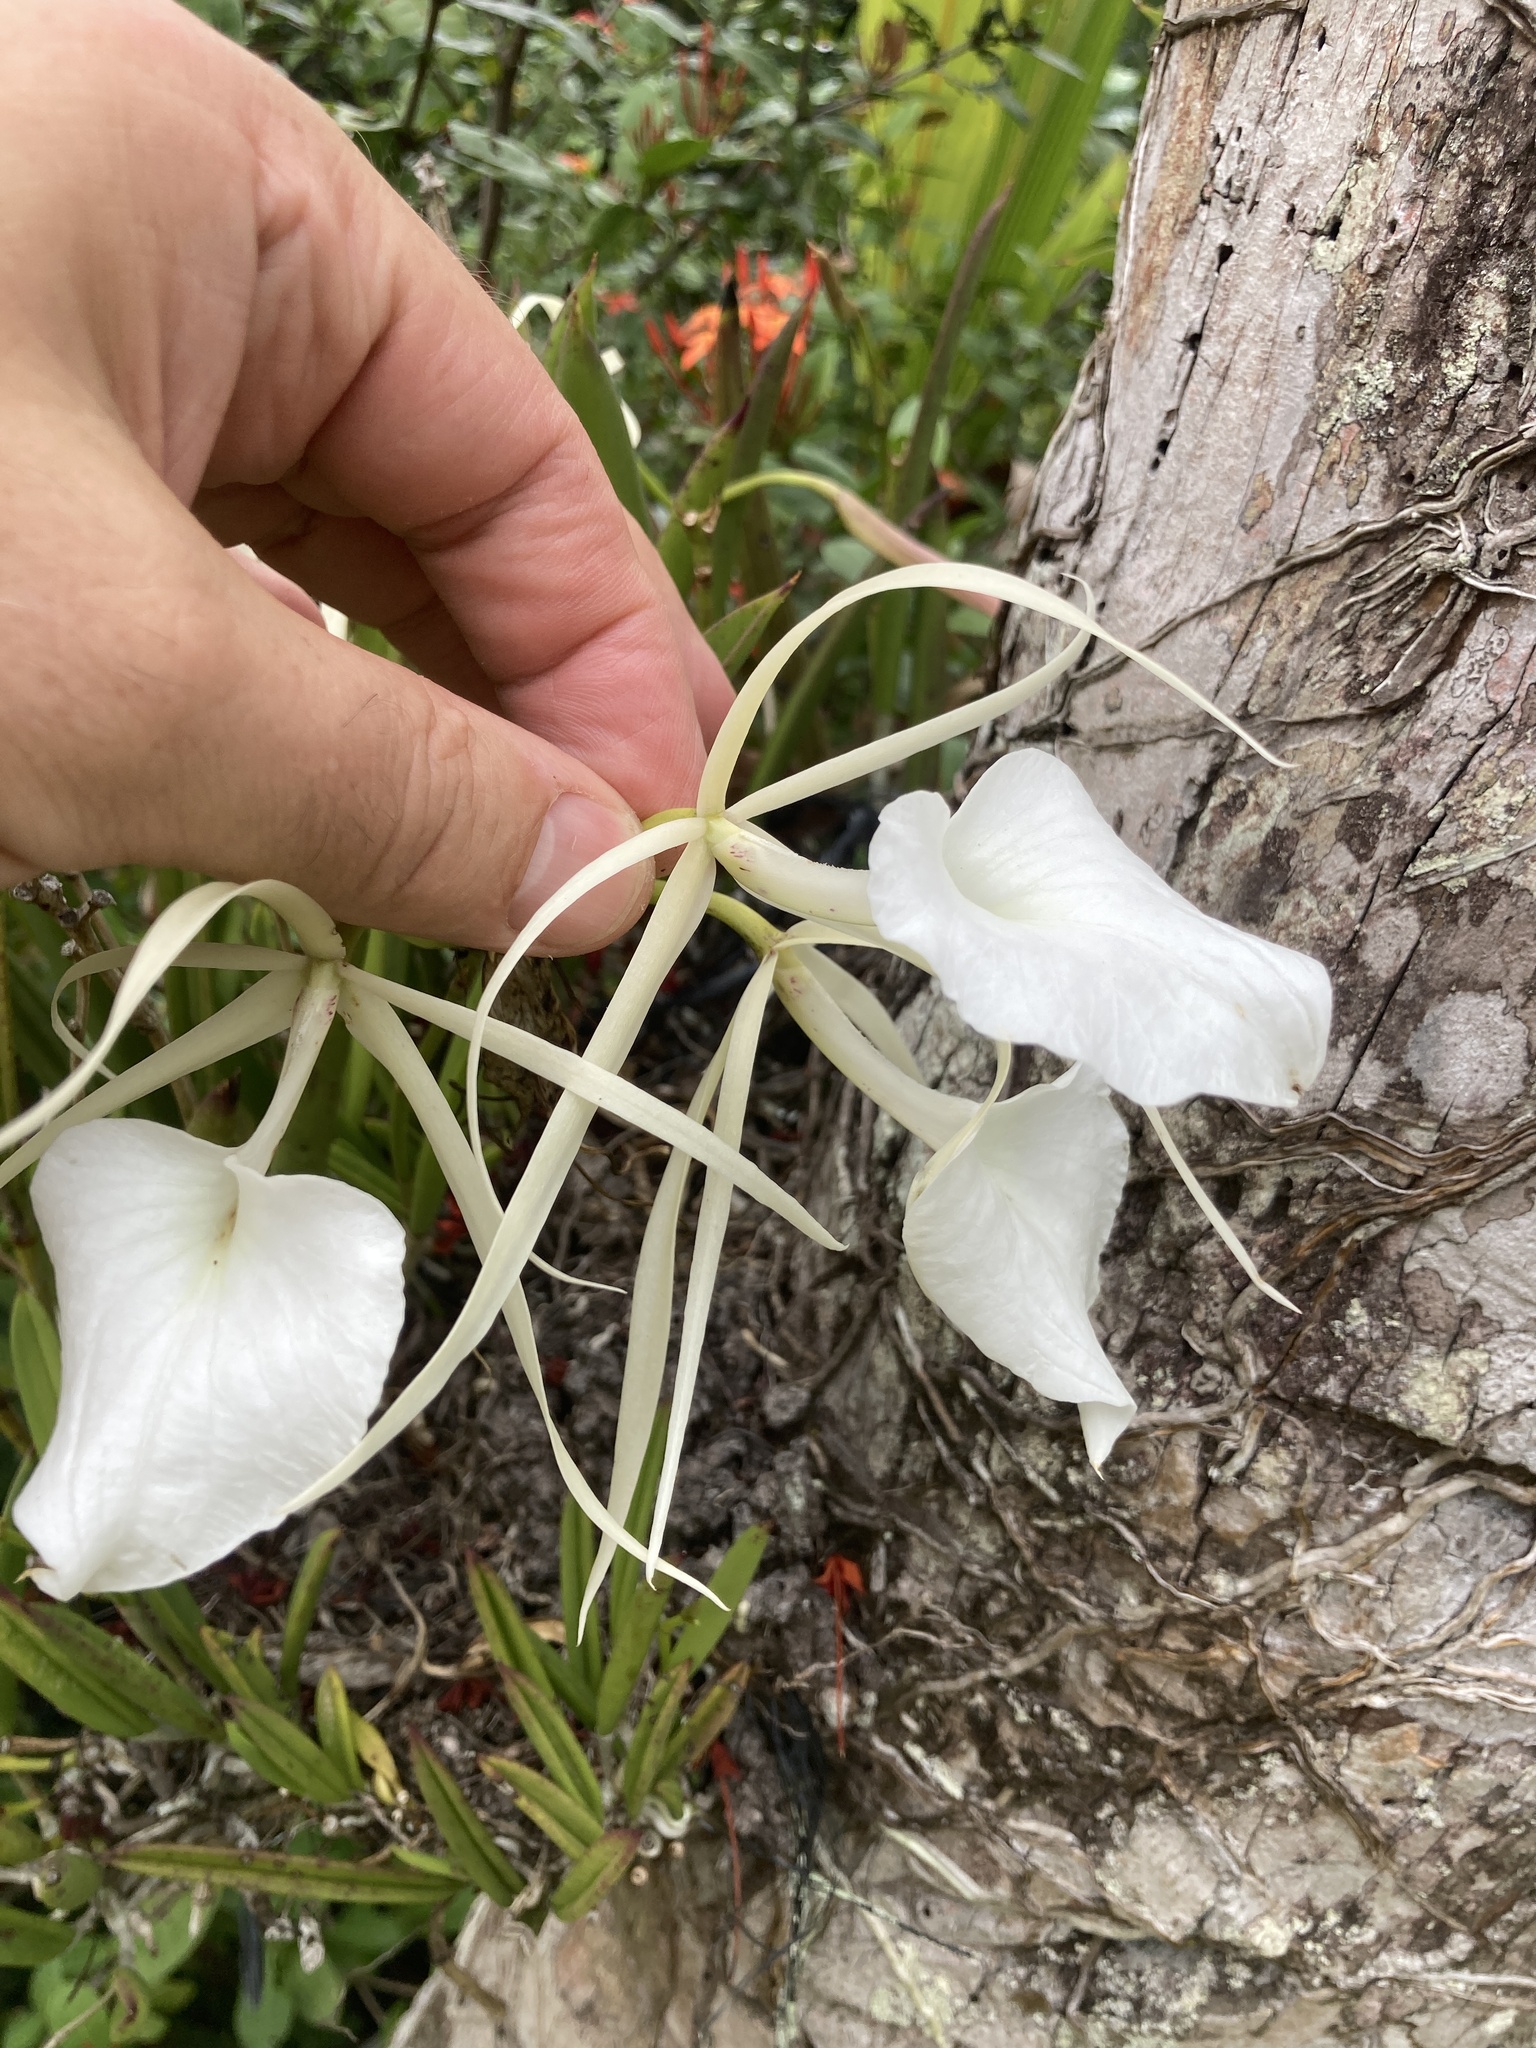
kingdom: Plantae
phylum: Tracheophyta
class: Liliopsida
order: Asparagales
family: Orchidaceae
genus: Brassavola
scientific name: Brassavola nodosa
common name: Lady of the night
